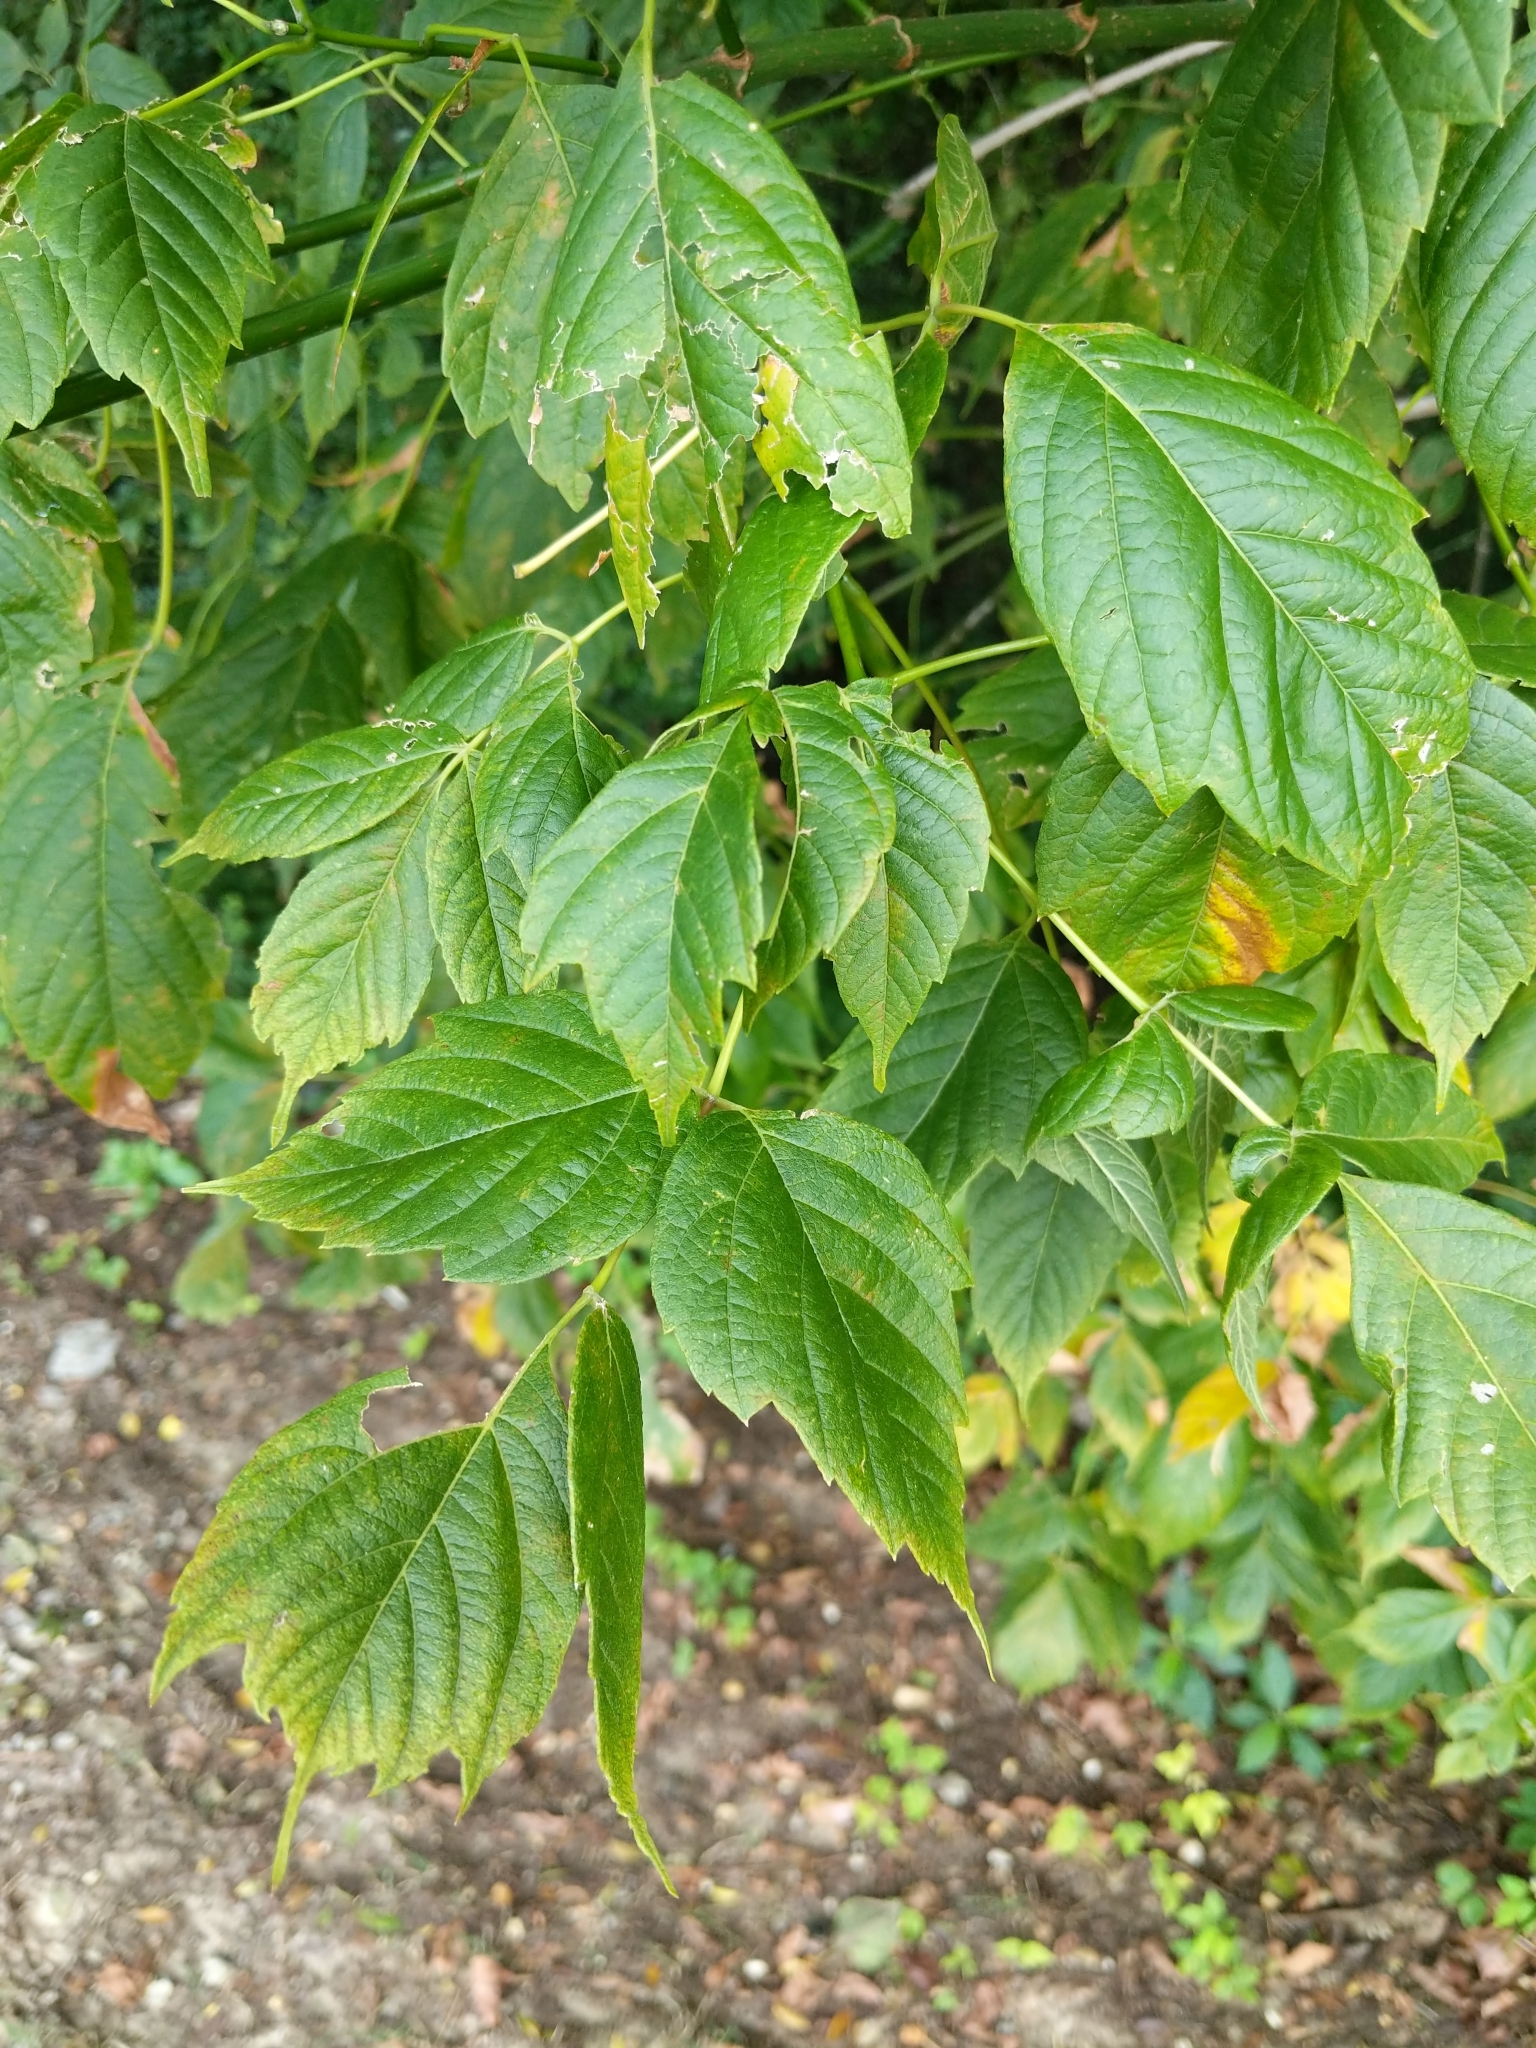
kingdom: Plantae
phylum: Tracheophyta
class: Magnoliopsida
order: Sapindales
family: Sapindaceae
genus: Acer
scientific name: Acer negundo
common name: Ashleaf maple
